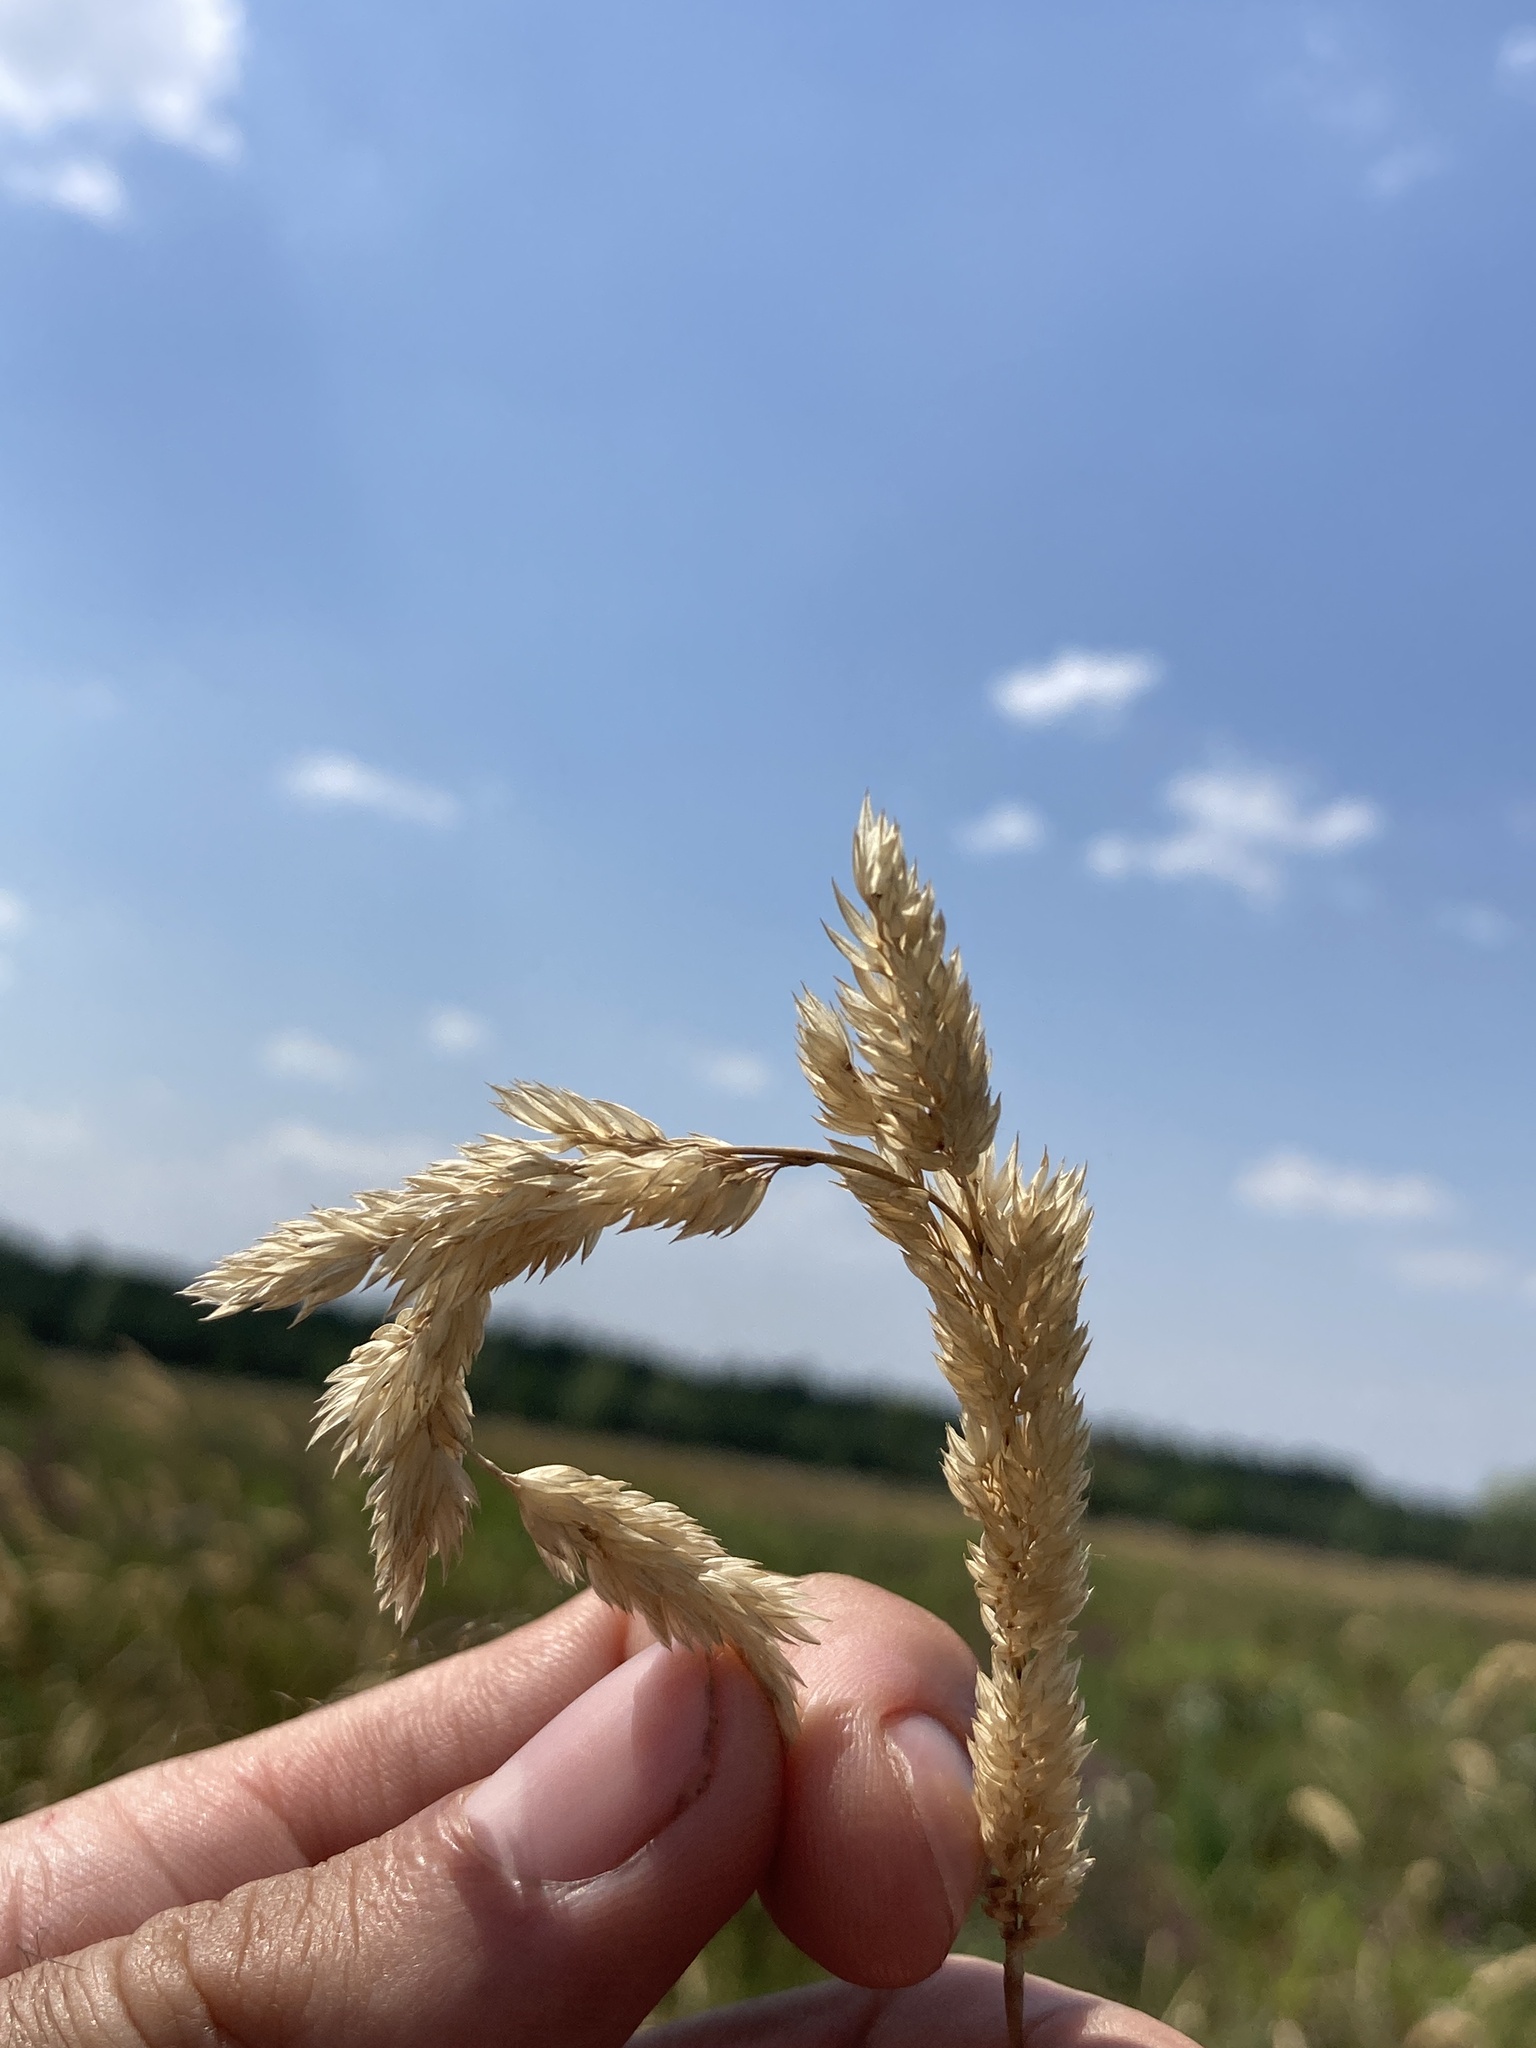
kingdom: Plantae
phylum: Tracheophyta
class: Liliopsida
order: Poales
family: Poaceae
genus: Phalaris
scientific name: Phalaris arundinacea
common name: Reed canary-grass
